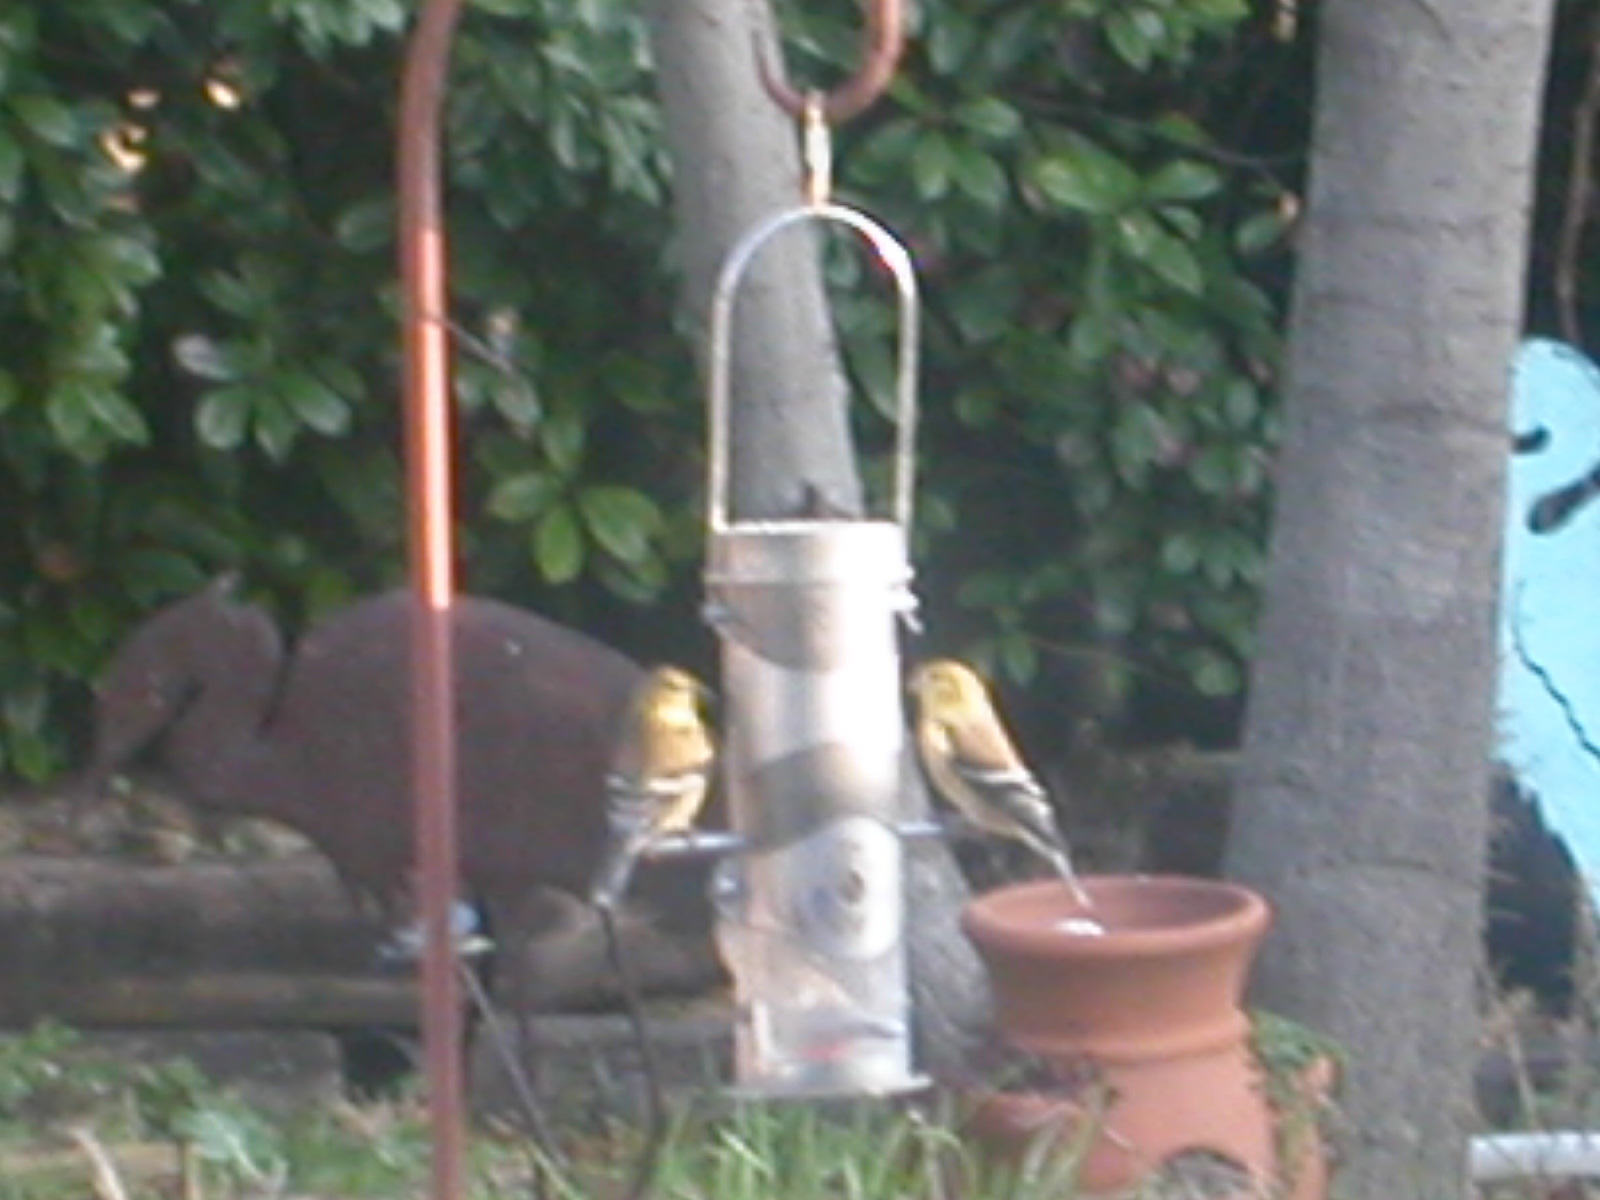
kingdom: Animalia
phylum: Chordata
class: Aves
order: Passeriformes
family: Fringillidae
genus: Spinus
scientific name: Spinus tristis
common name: American goldfinch
